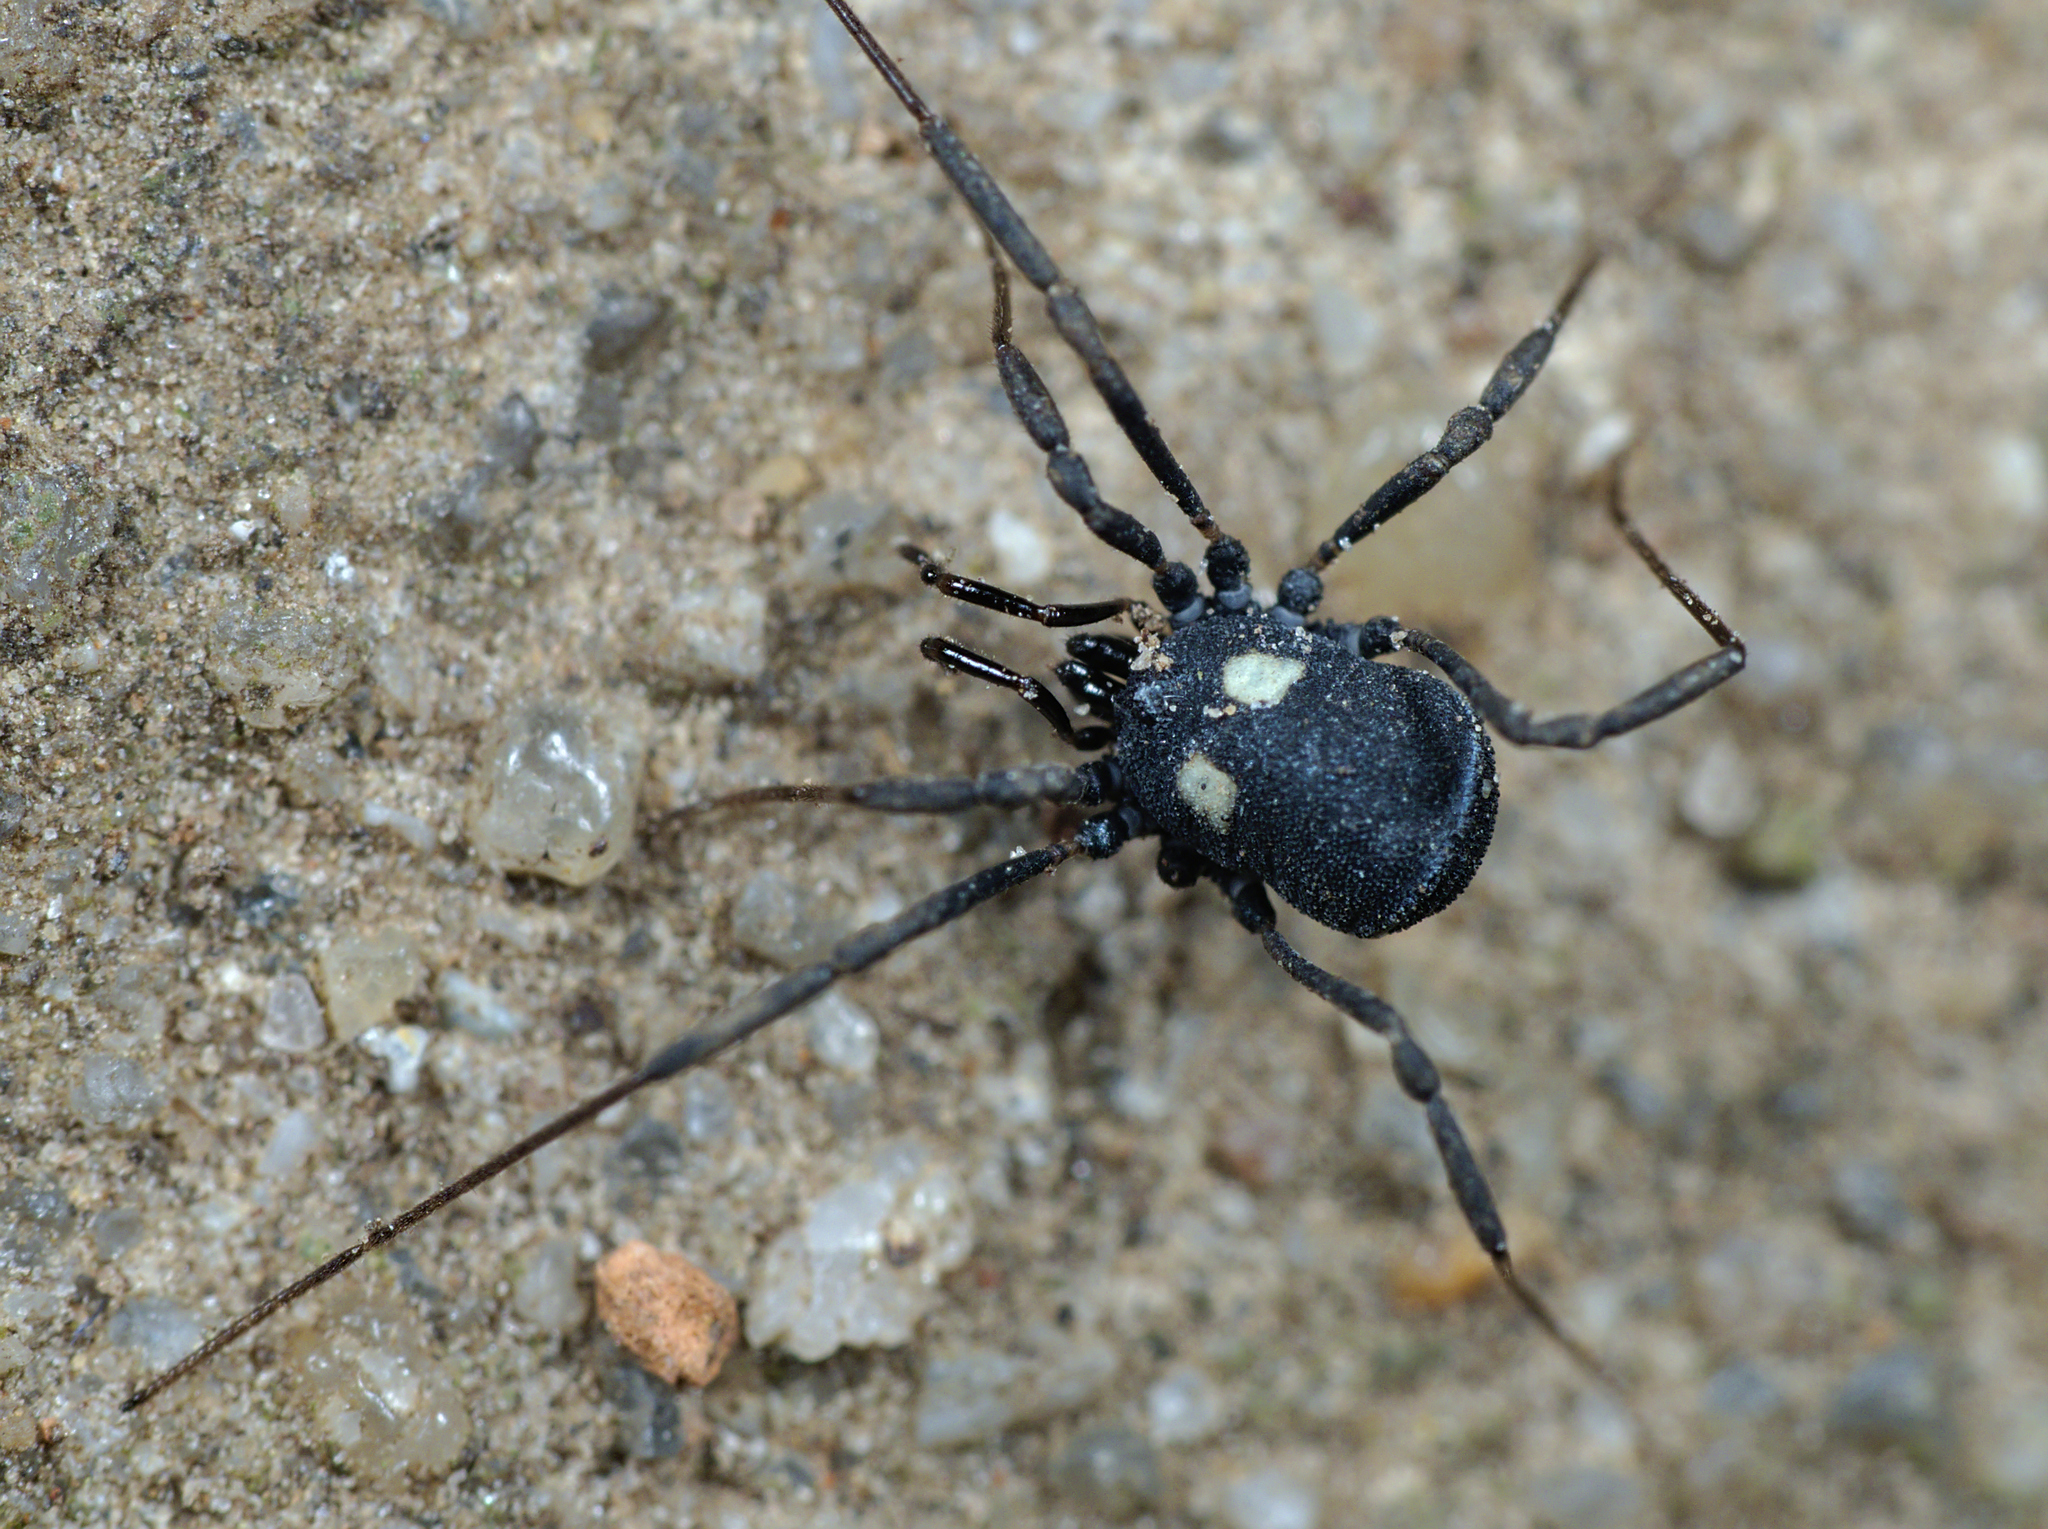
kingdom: Animalia
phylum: Arthropoda
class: Arachnida
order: Opiliones
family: Nemastomatidae
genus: Nemastoma
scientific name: Nemastoma lugubre
